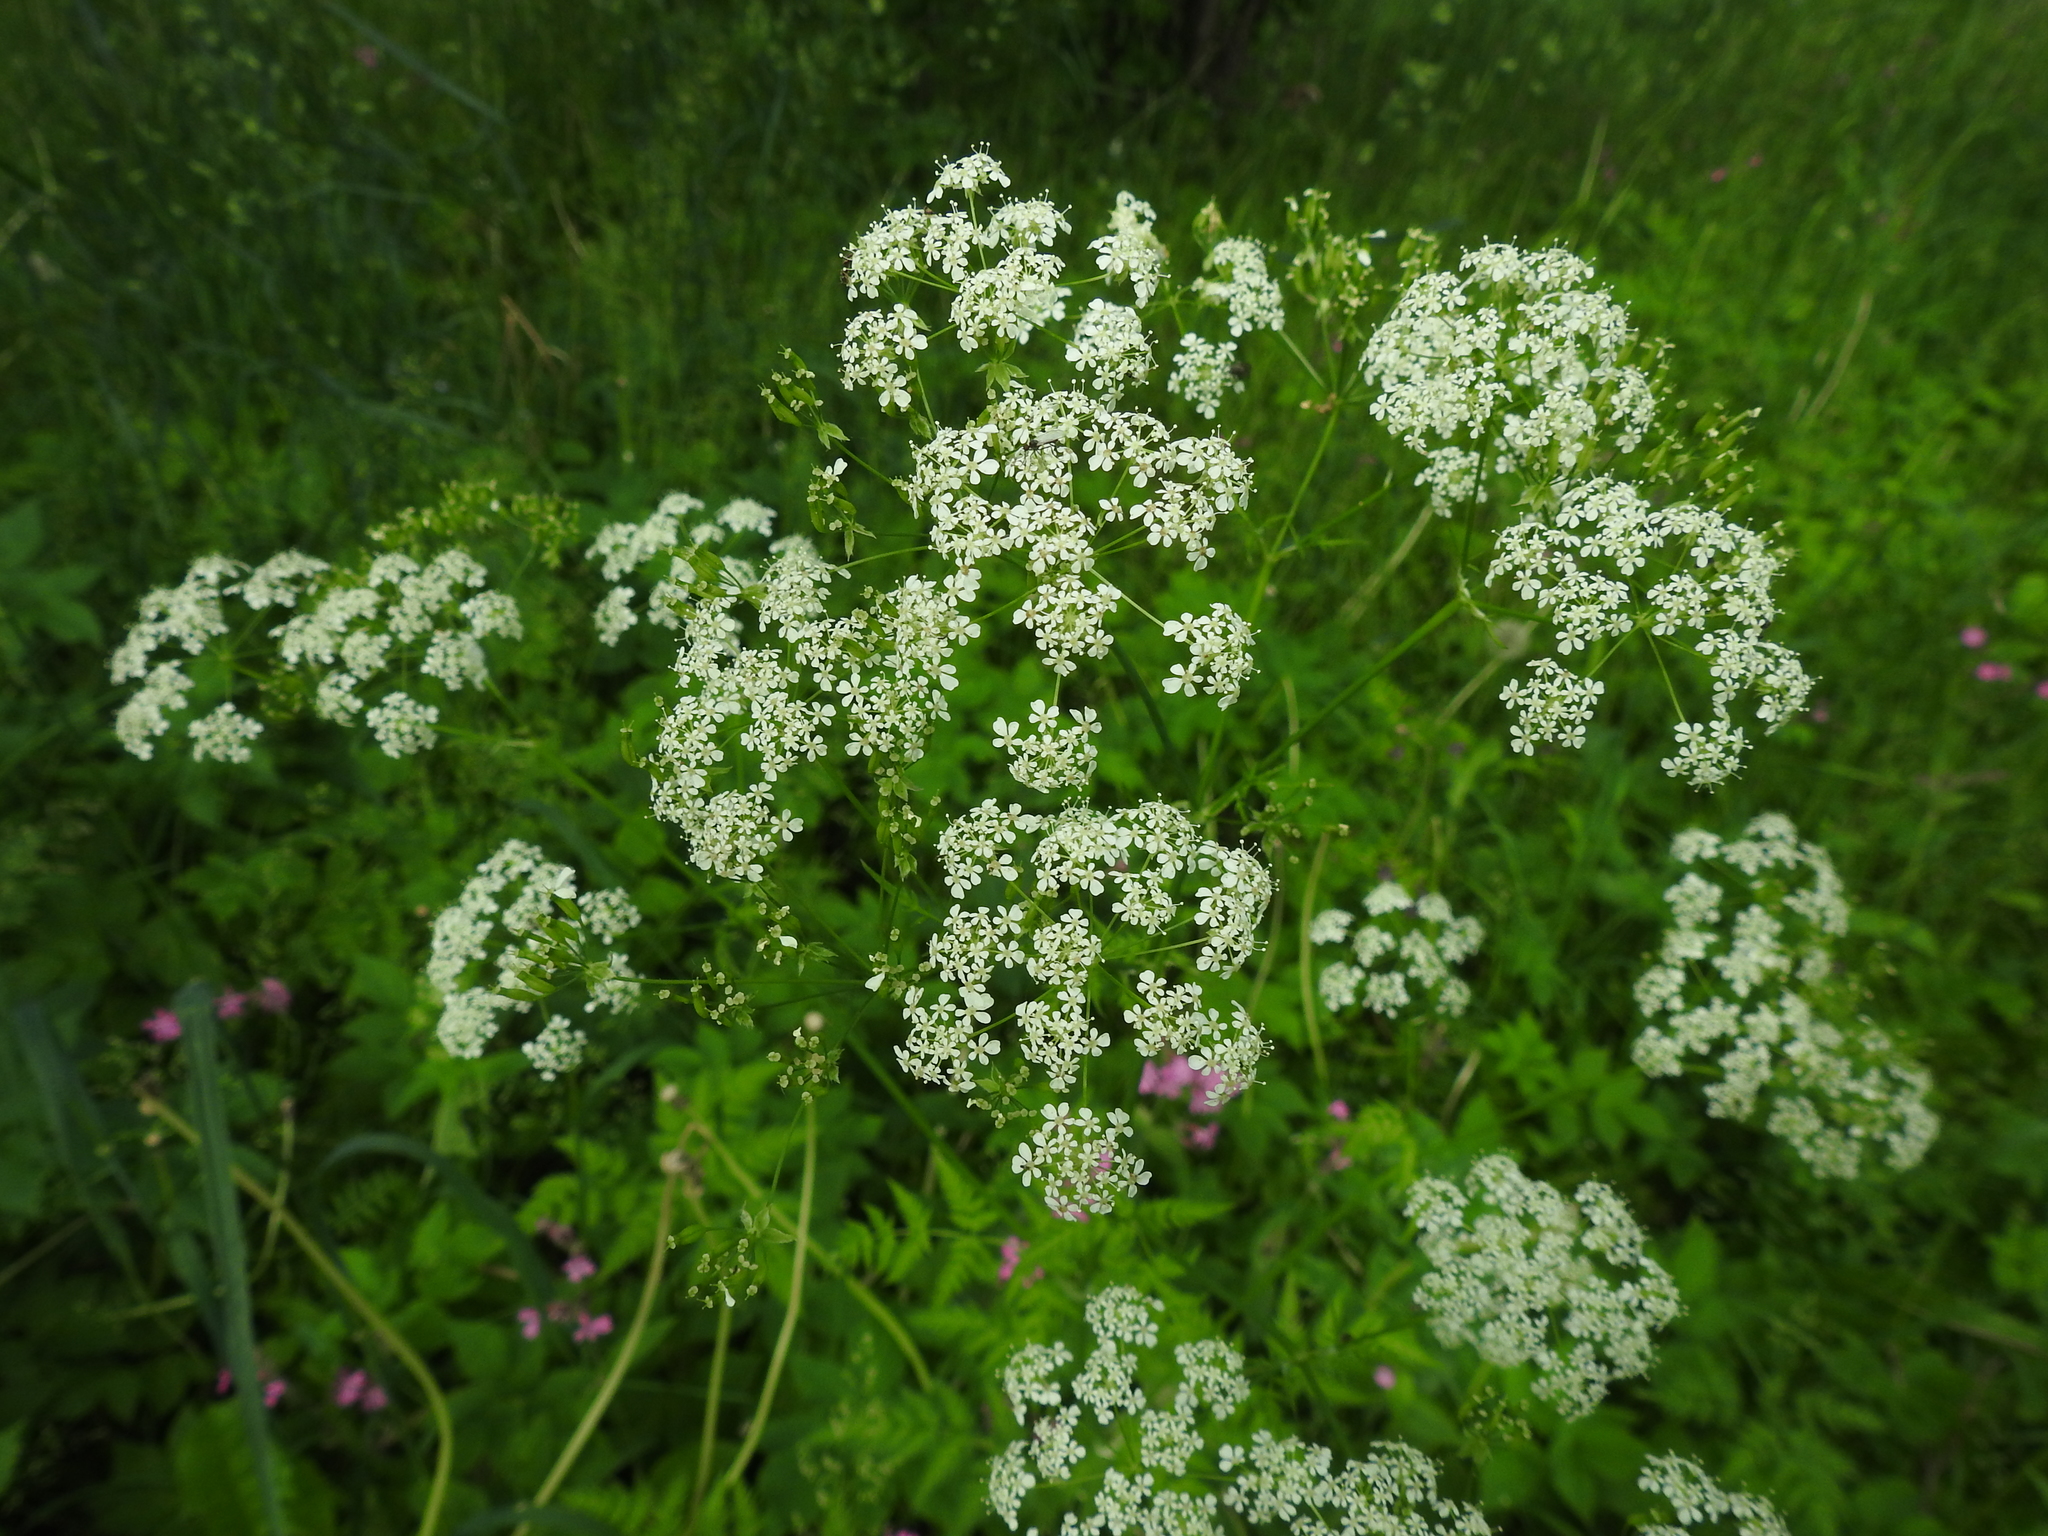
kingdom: Plantae
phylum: Tracheophyta
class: Magnoliopsida
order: Apiales
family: Apiaceae
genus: Anthriscus
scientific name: Anthriscus sylvestris
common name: Cow parsley
